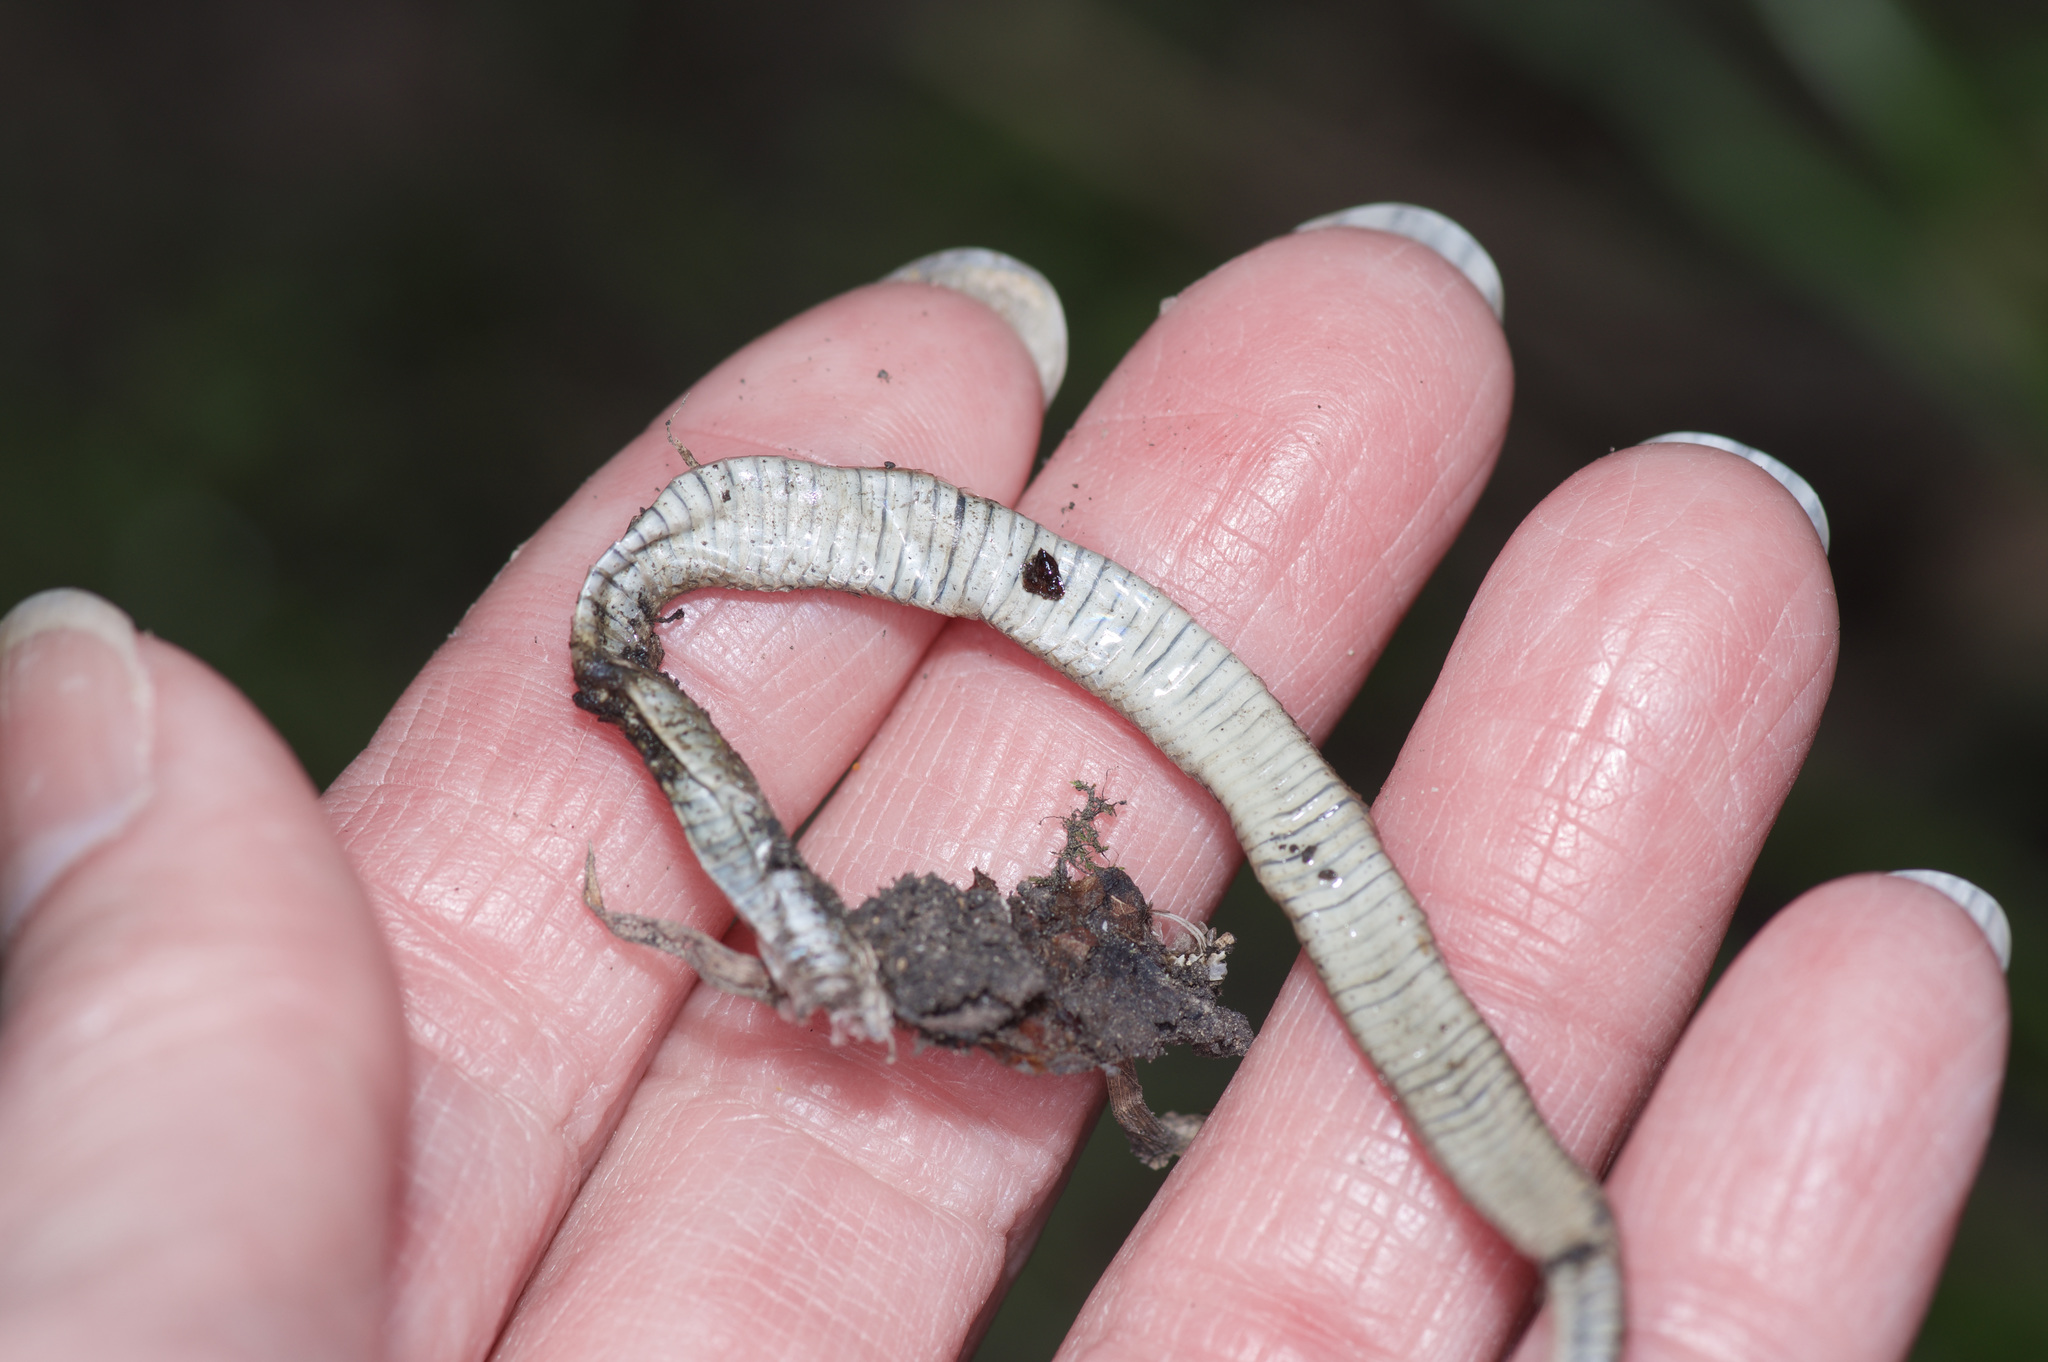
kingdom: Animalia
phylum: Chordata
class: Squamata
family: Colubridae
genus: Haldea
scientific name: Haldea striatula
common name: Rough earth snake
